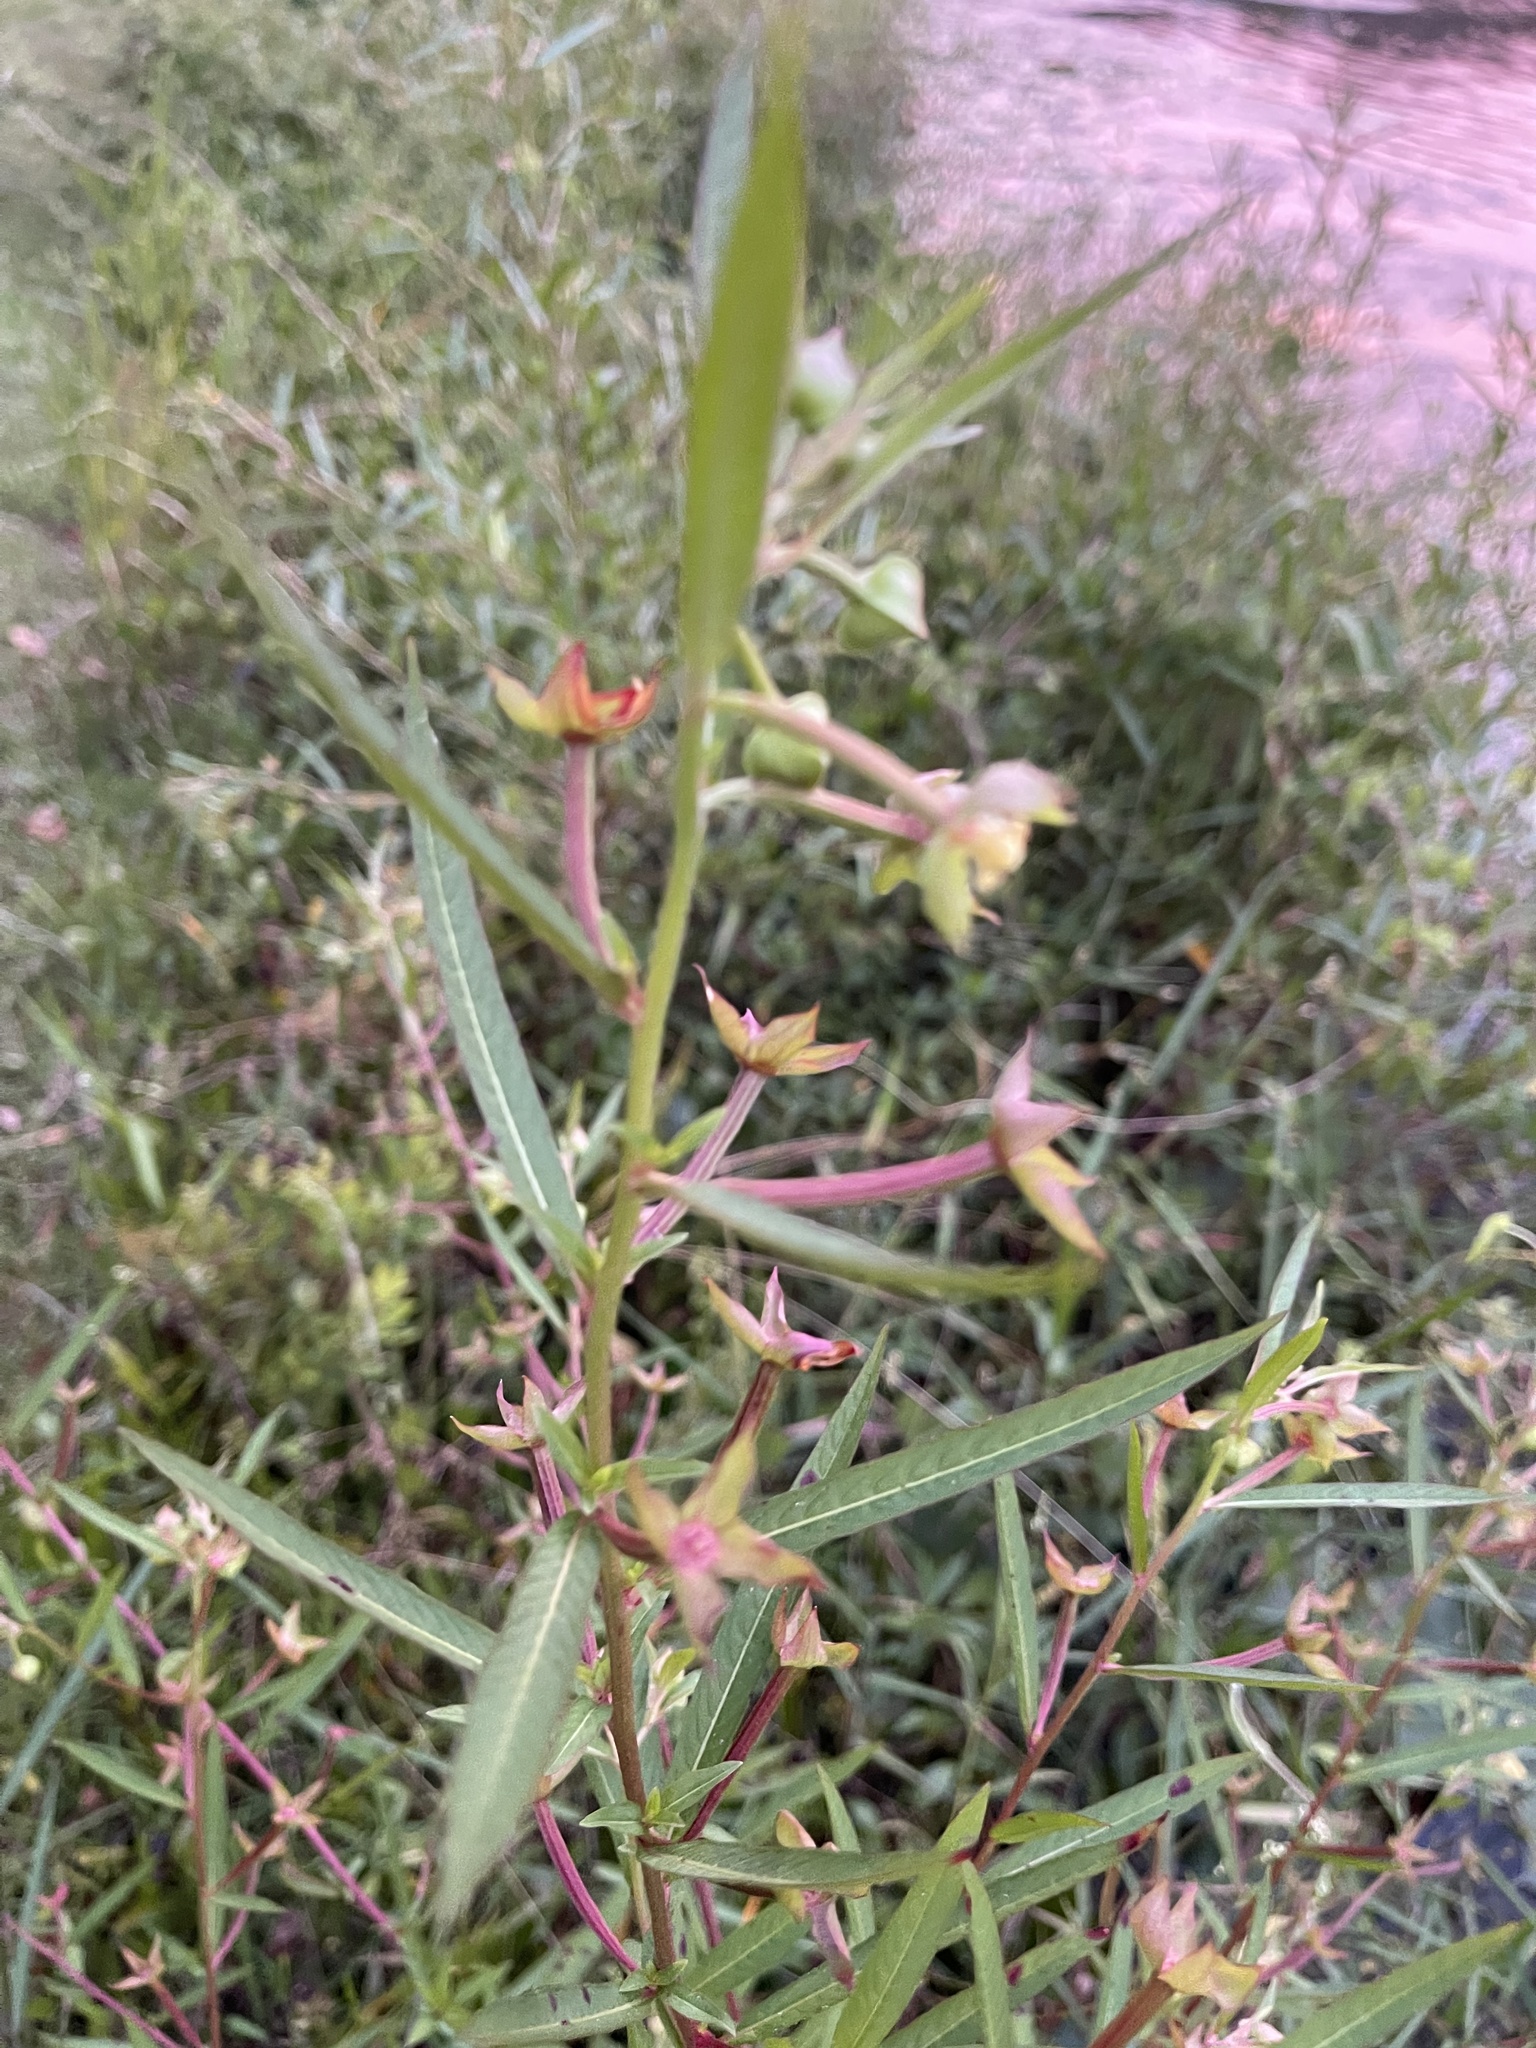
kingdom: Plantae
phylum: Tracheophyta
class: Magnoliopsida
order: Myrtales
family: Onagraceae
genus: Ludwigia
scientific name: Ludwigia octovalvis
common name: Water-primrose
